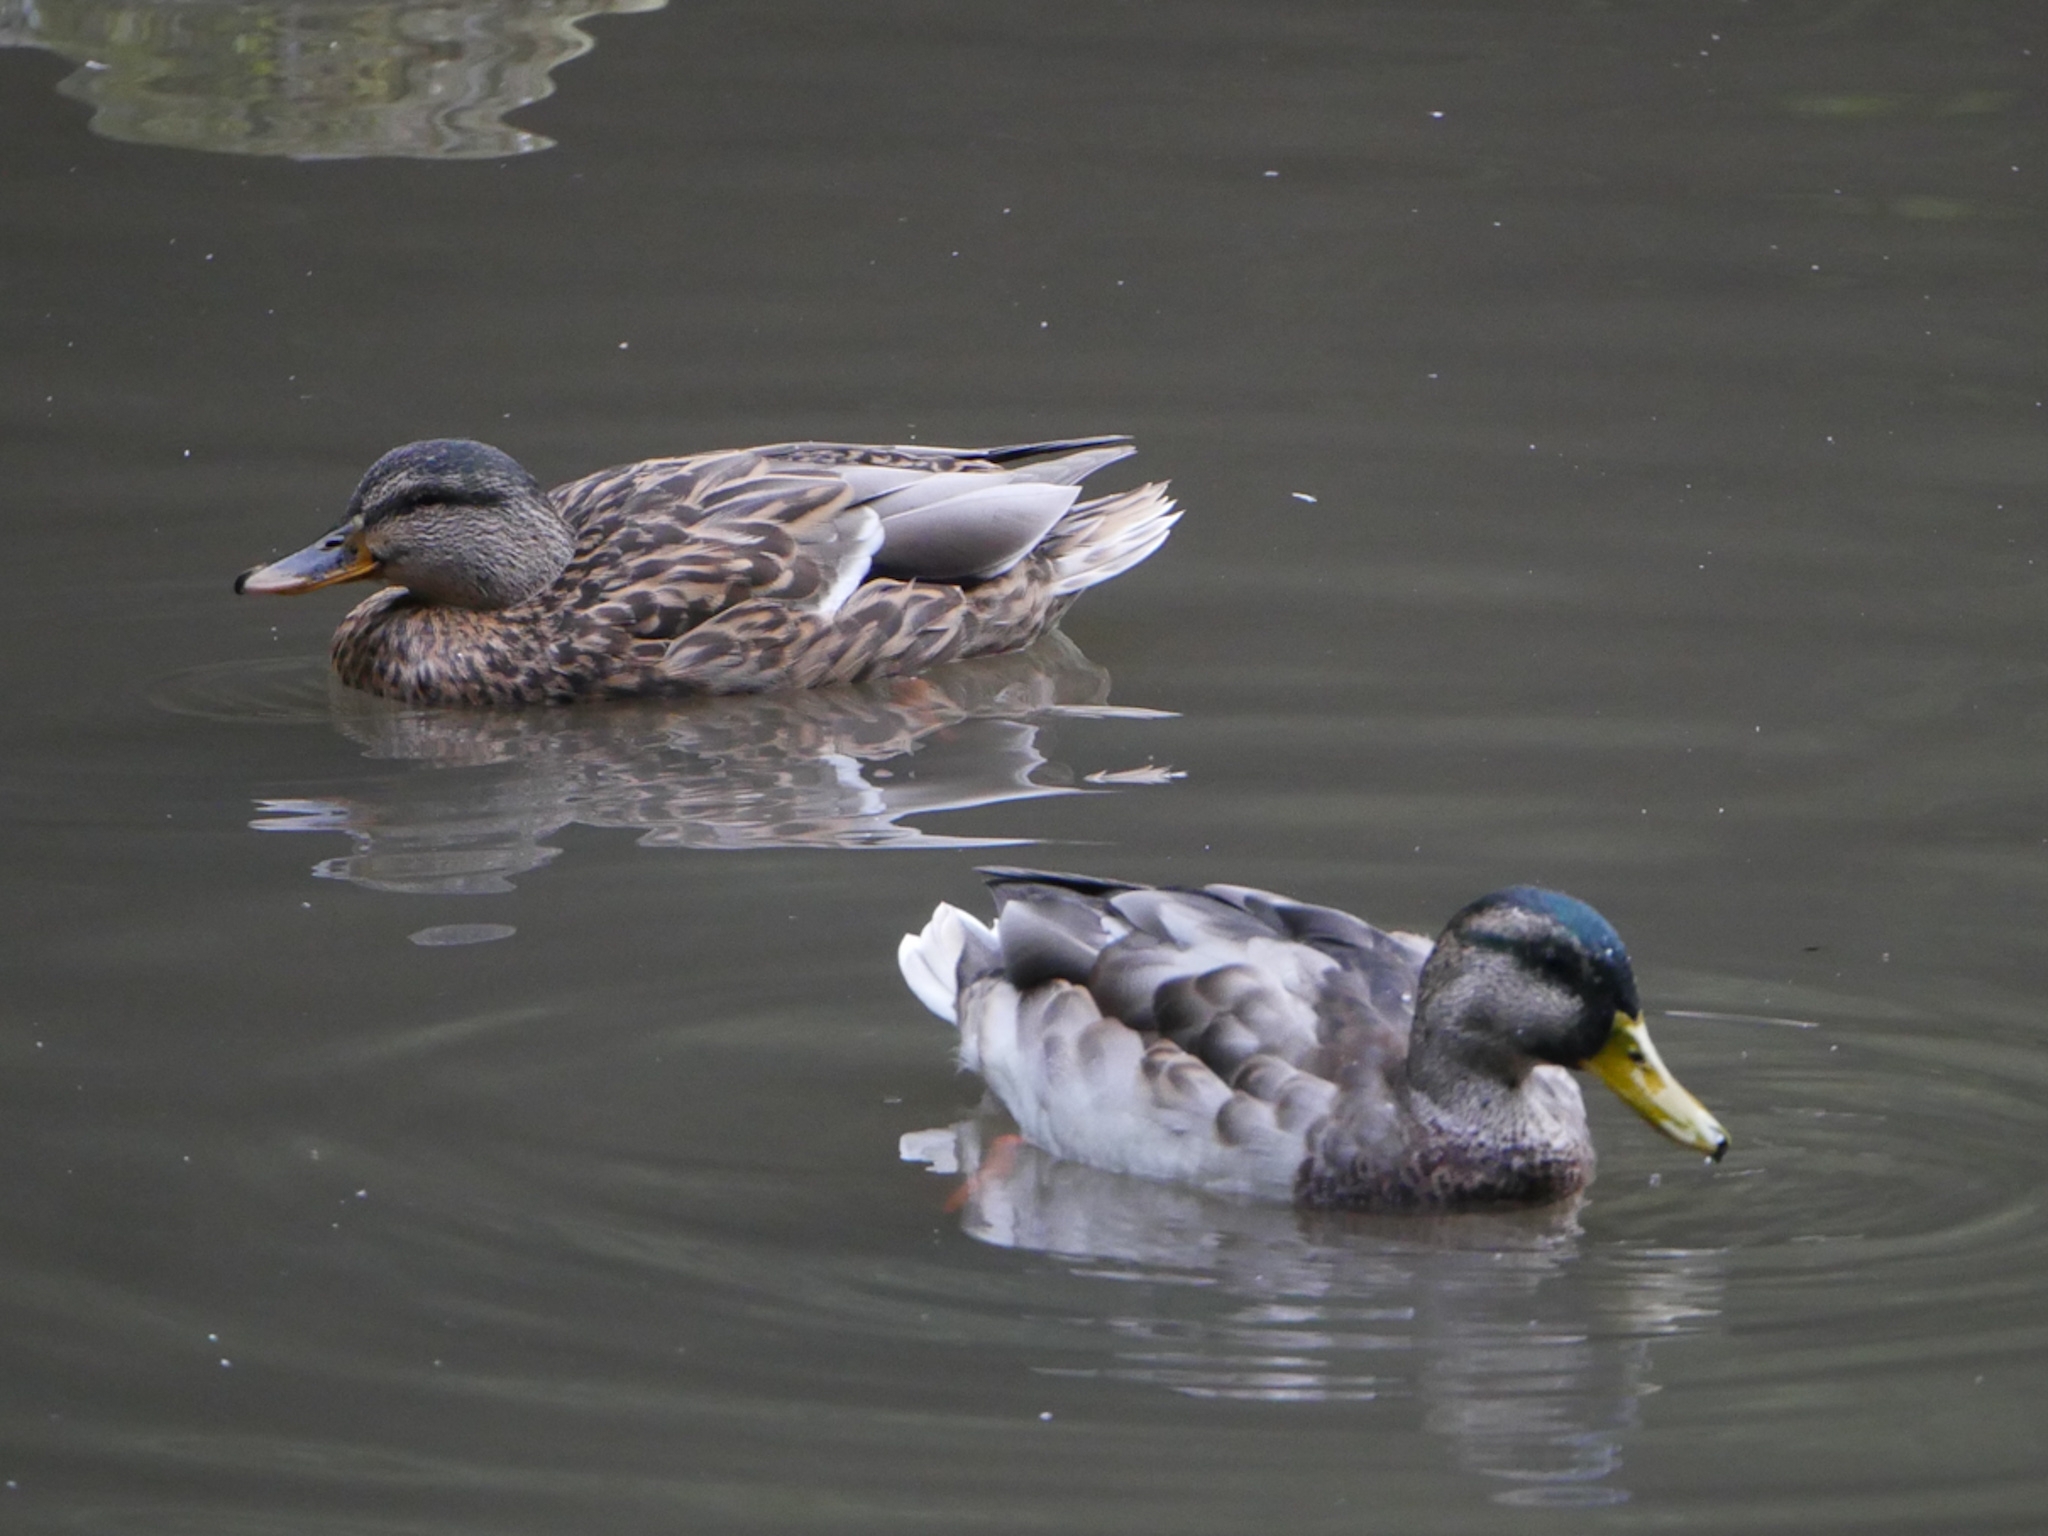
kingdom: Animalia
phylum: Chordata
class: Aves
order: Anseriformes
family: Anatidae
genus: Anas
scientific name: Anas platyrhynchos
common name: Mallard
